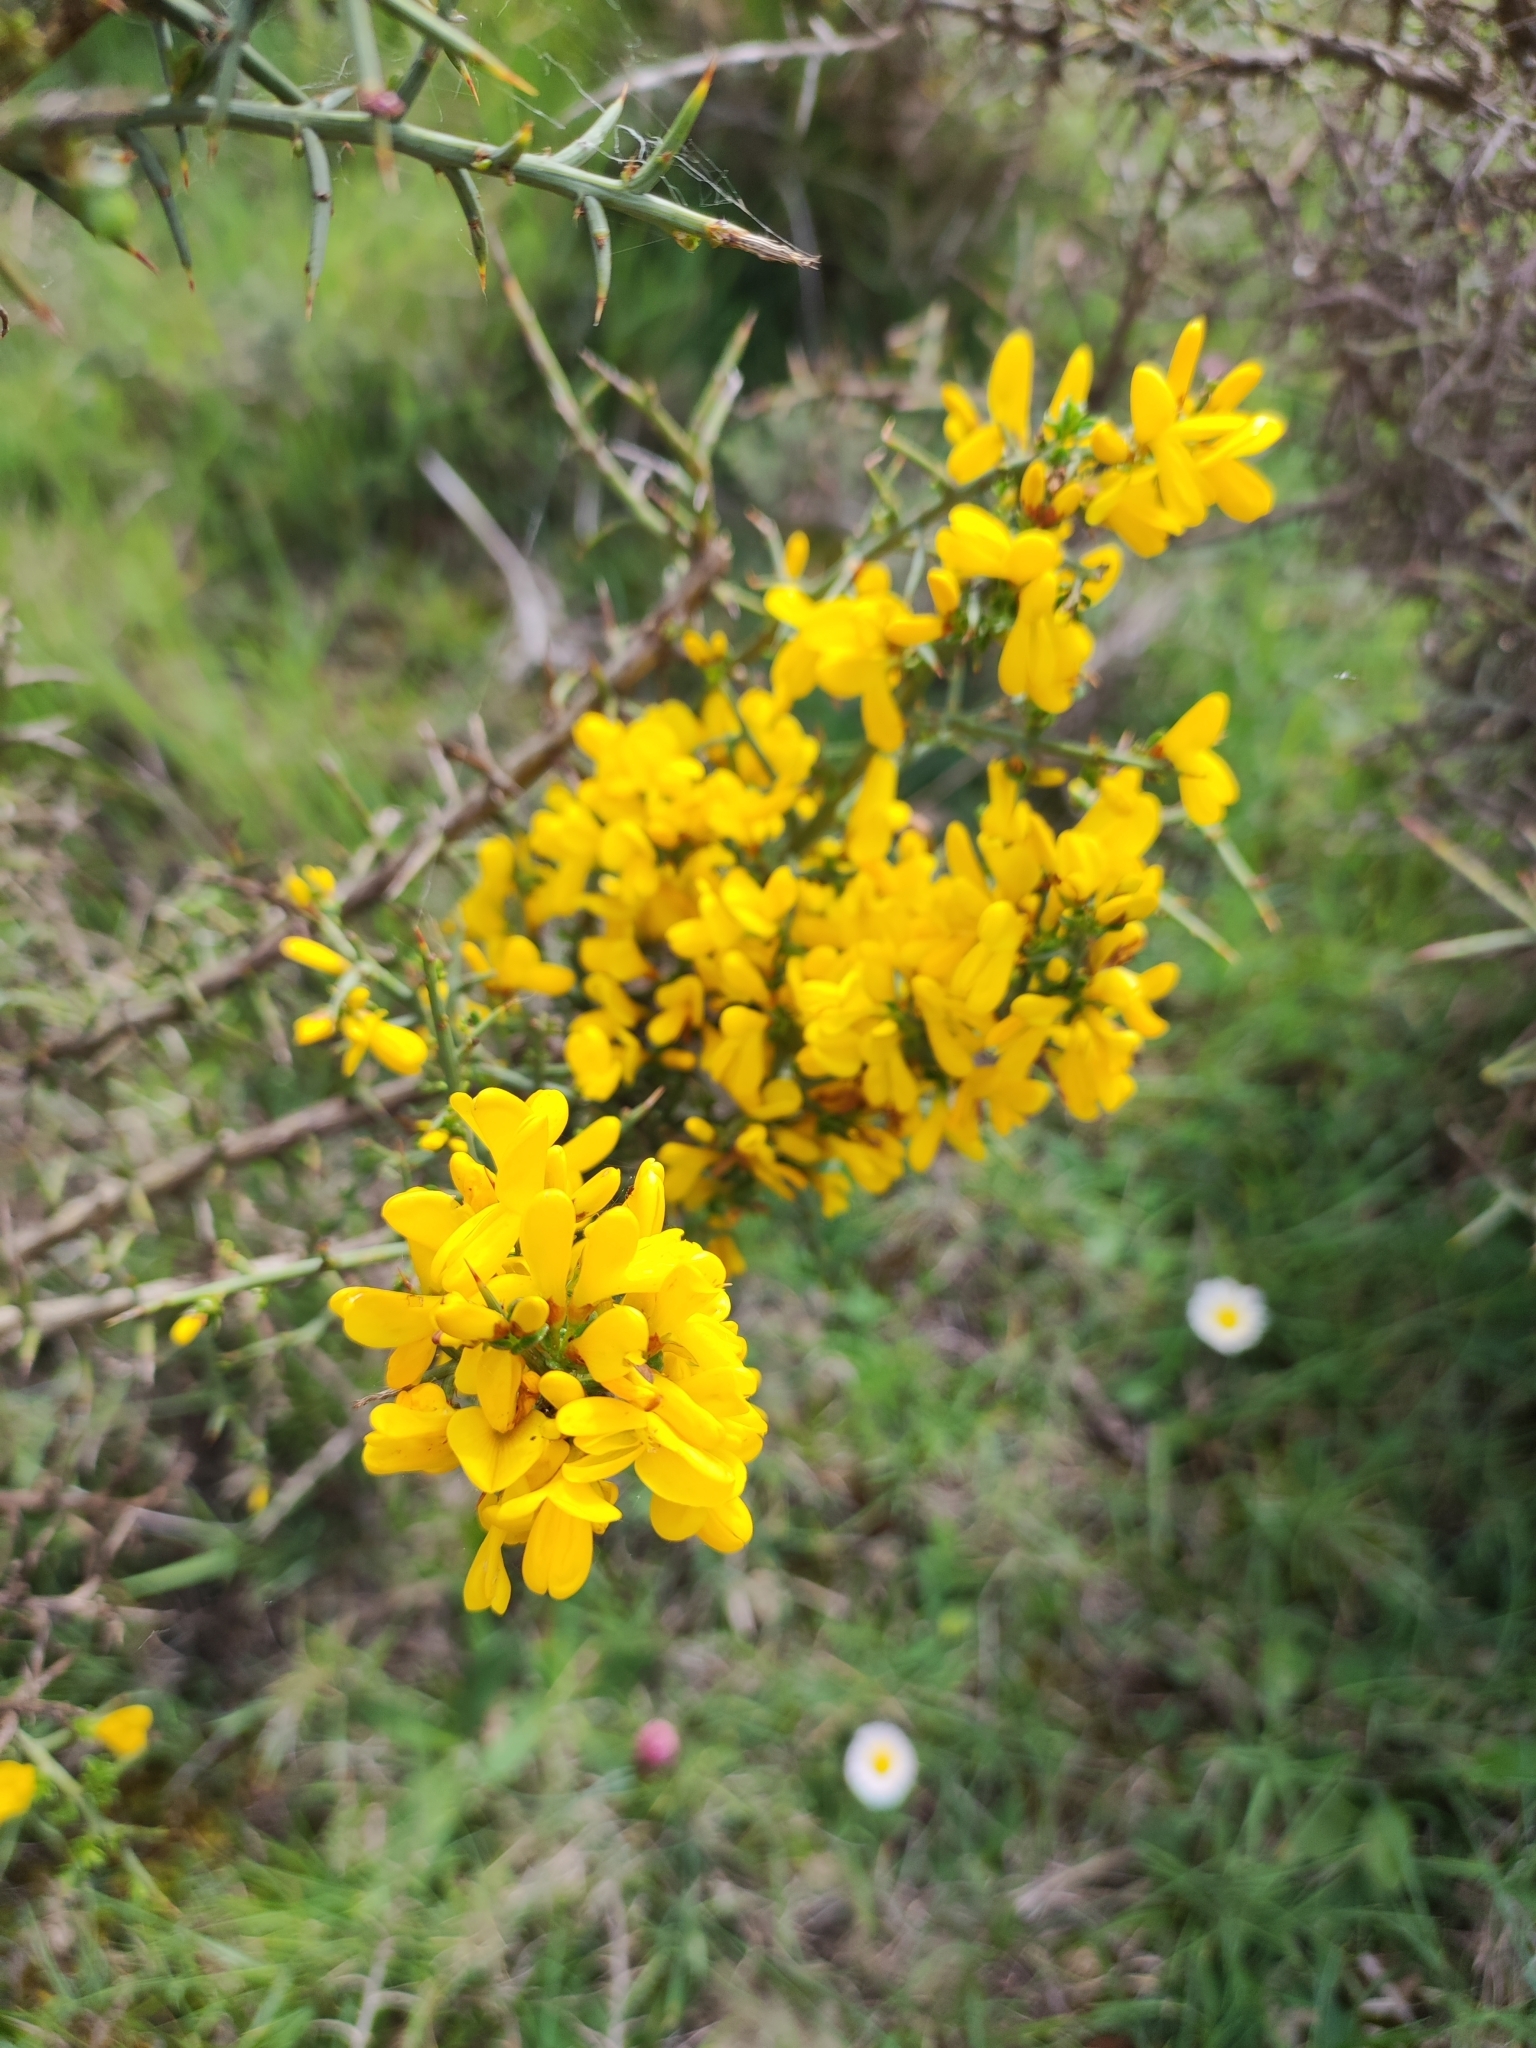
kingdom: Plantae
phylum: Tracheophyta
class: Magnoliopsida
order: Fabales
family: Fabaceae
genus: Genista
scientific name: Genista scorpius
